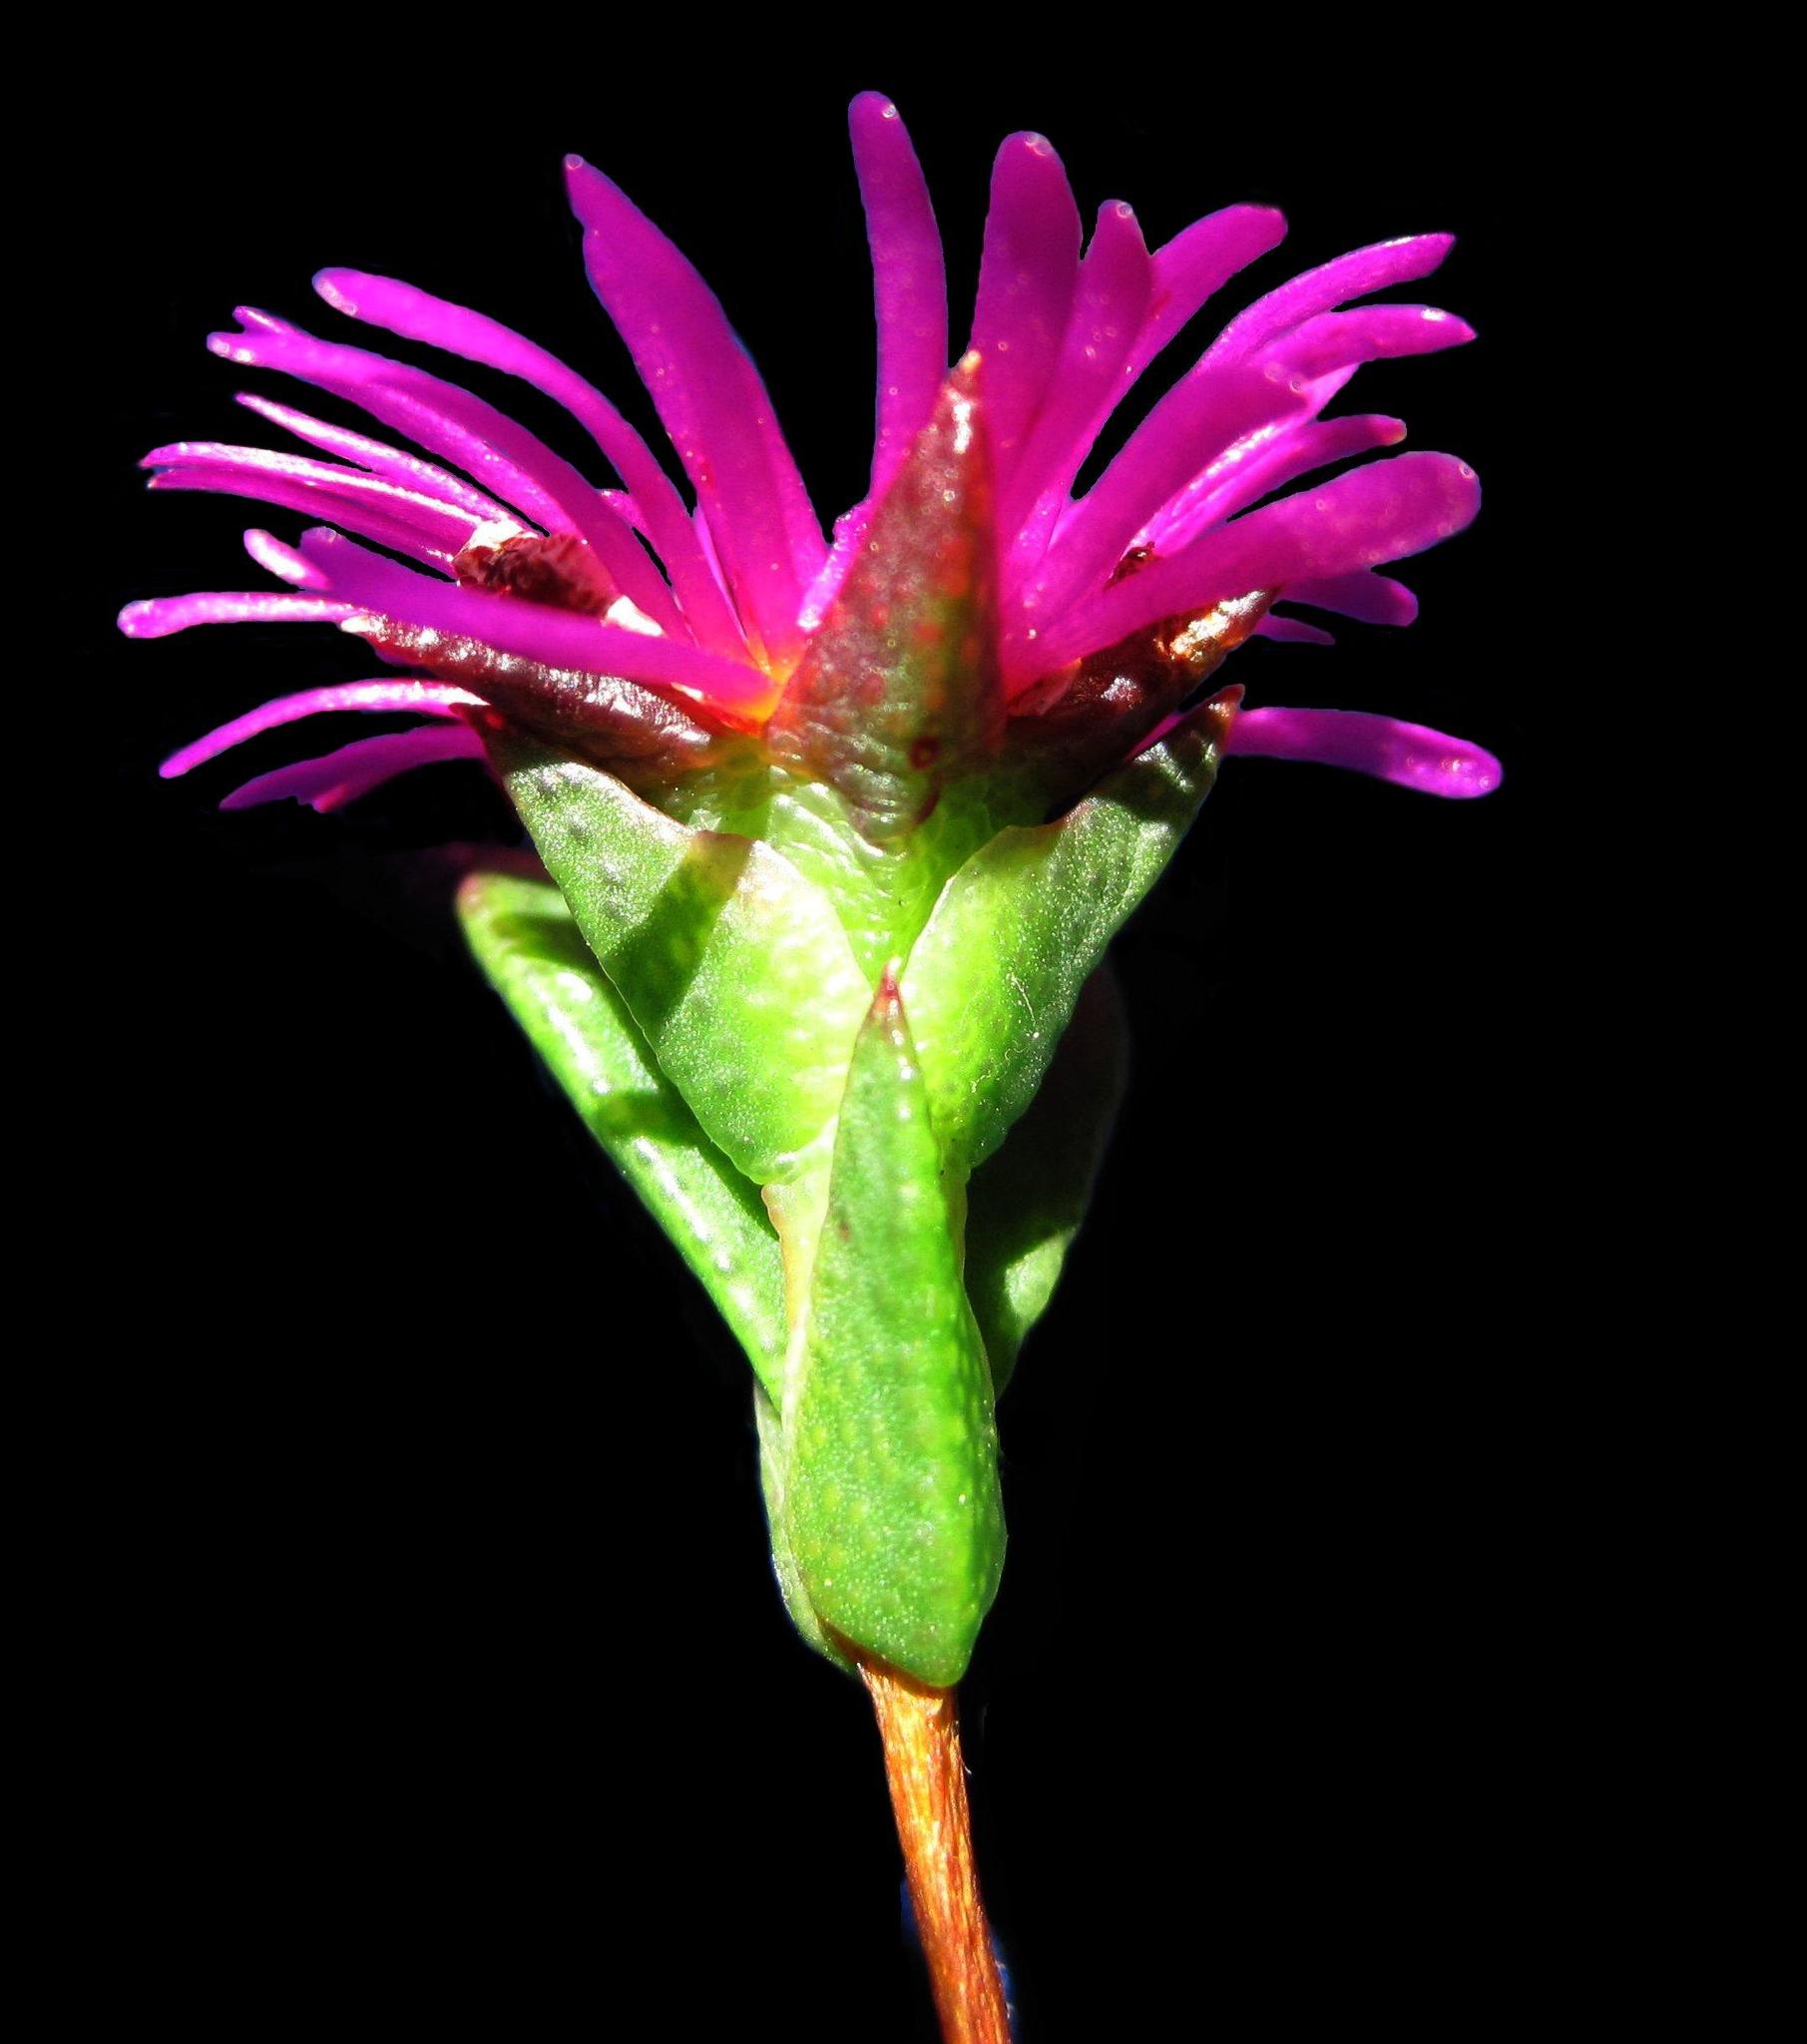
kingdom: Plantae
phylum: Tracheophyta
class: Magnoliopsida
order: Caryophyllales
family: Aizoaceae
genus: Erepsia
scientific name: Erepsia anceps
